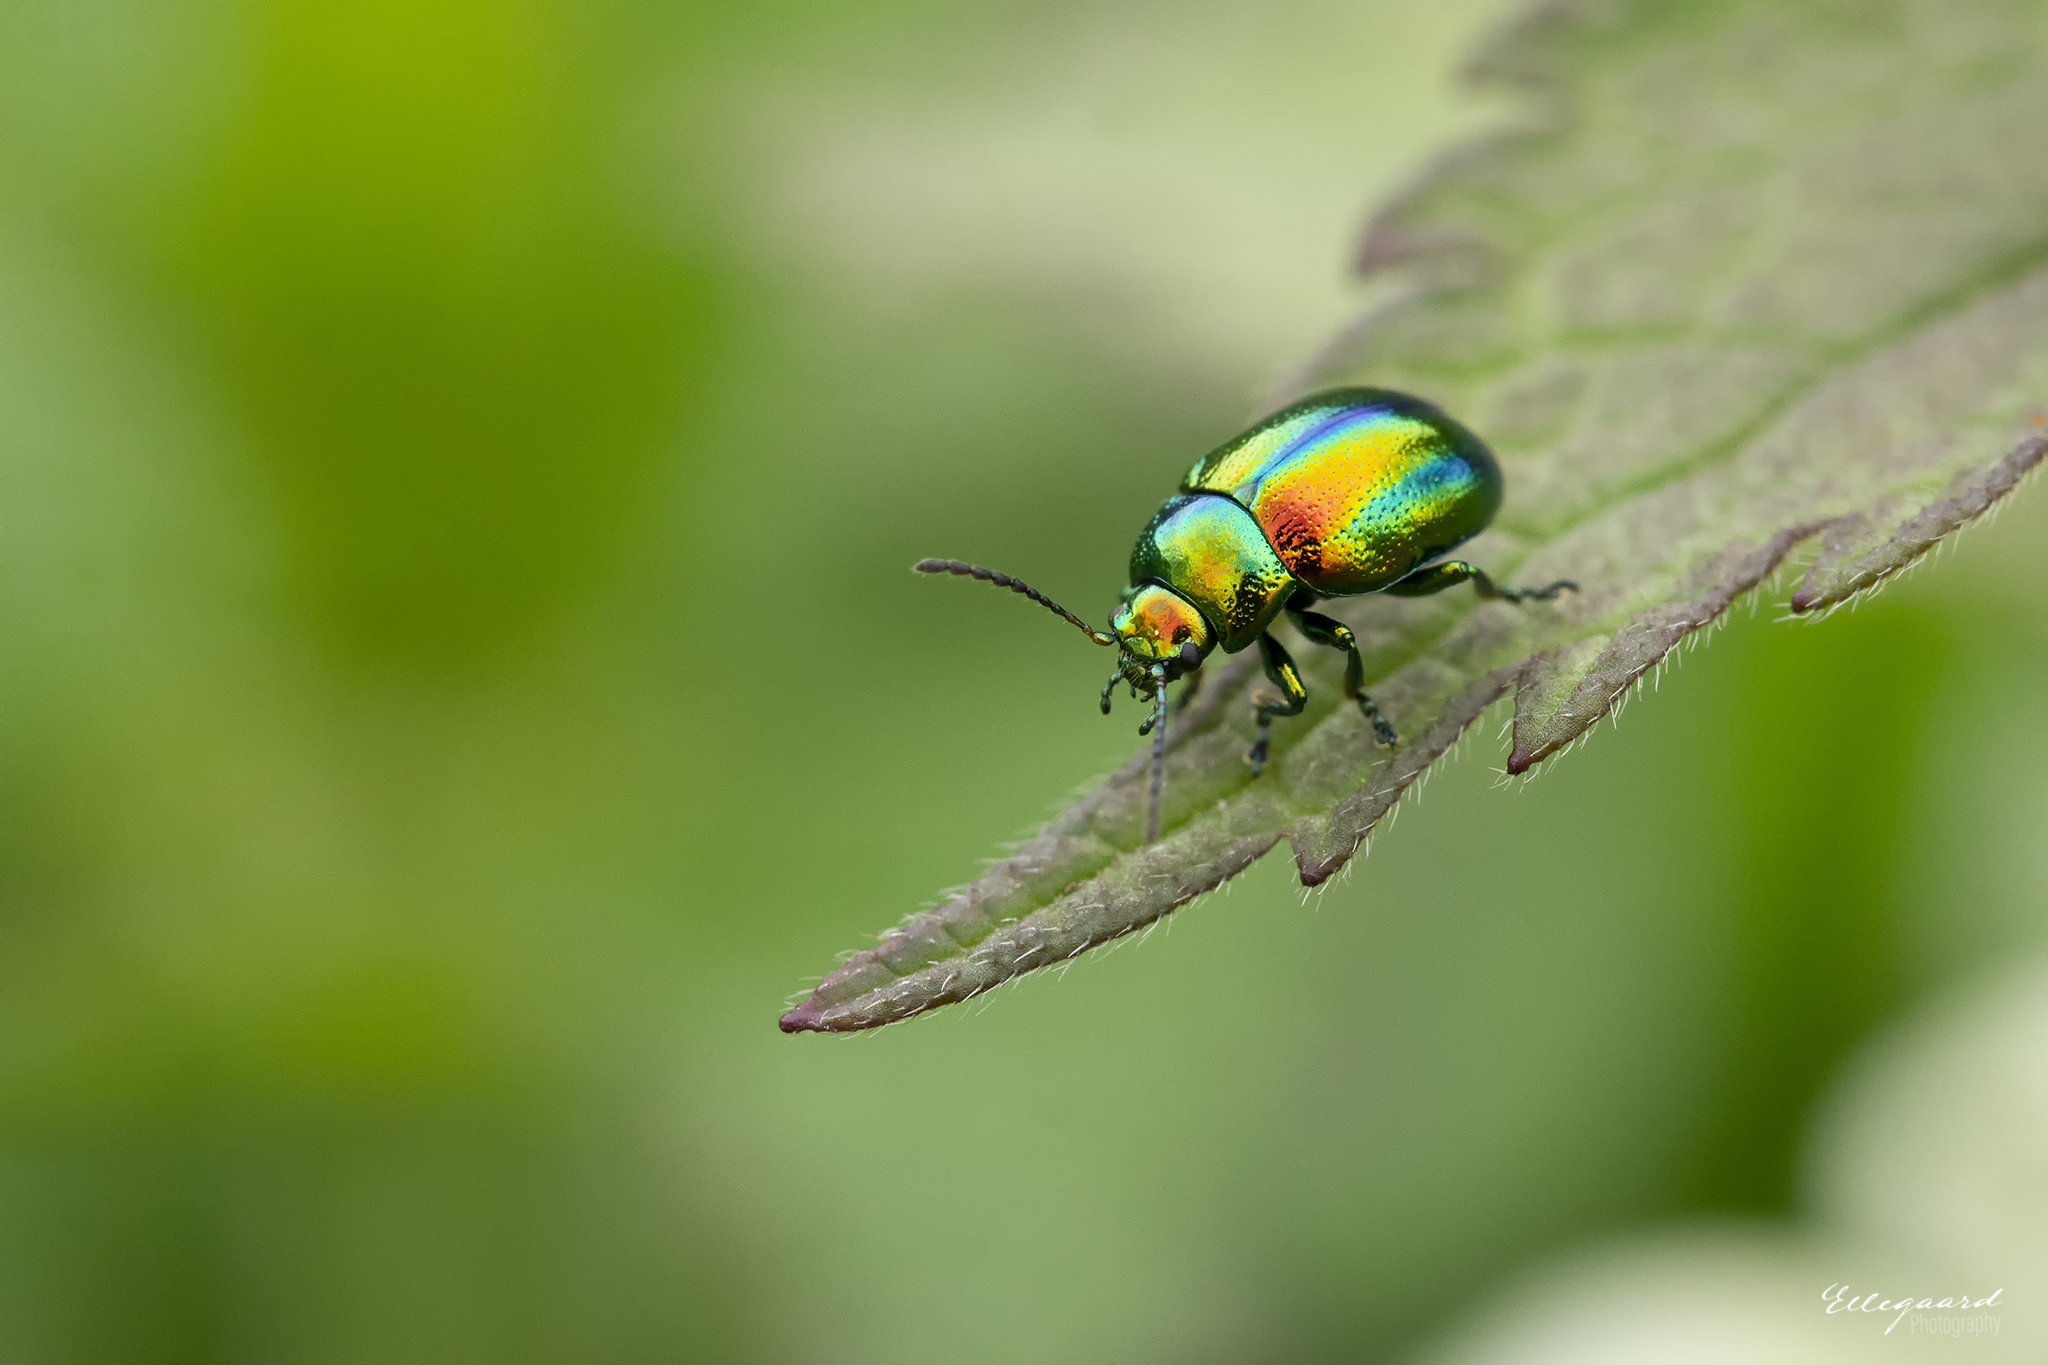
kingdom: Animalia
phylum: Arthropoda
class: Insecta
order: Coleoptera
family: Chrysomelidae
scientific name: Chrysomelidae
